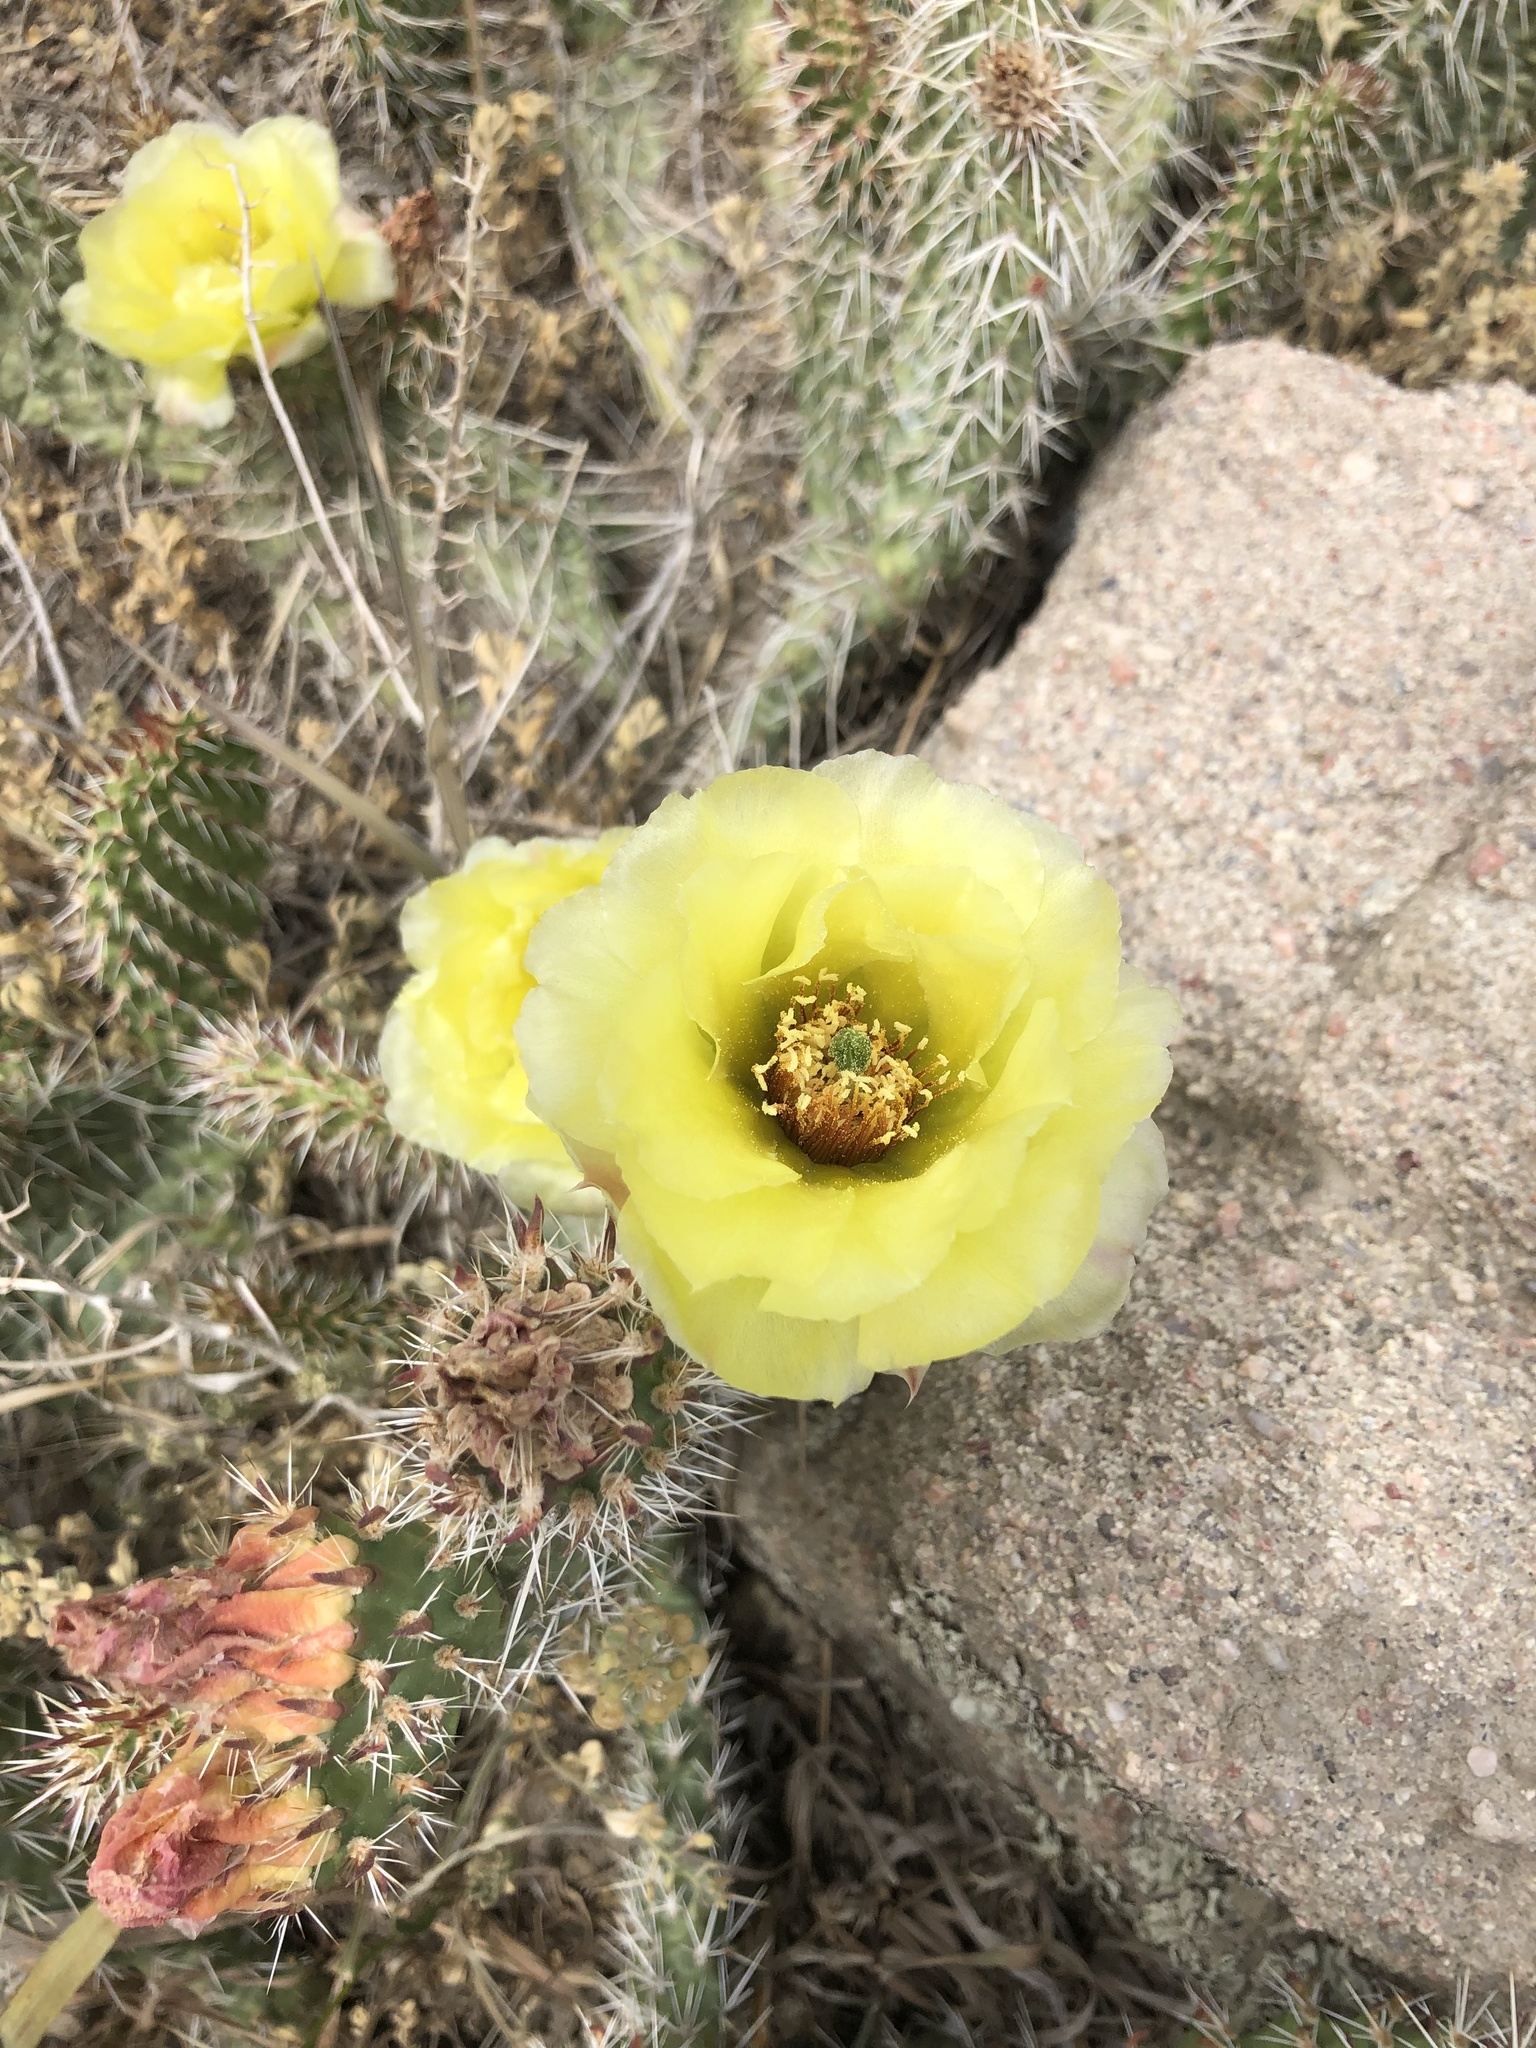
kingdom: Plantae
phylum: Tracheophyta
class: Magnoliopsida
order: Caryophyllales
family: Cactaceae
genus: Opuntia
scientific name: Opuntia polyacantha
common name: Plains prickly-pear
